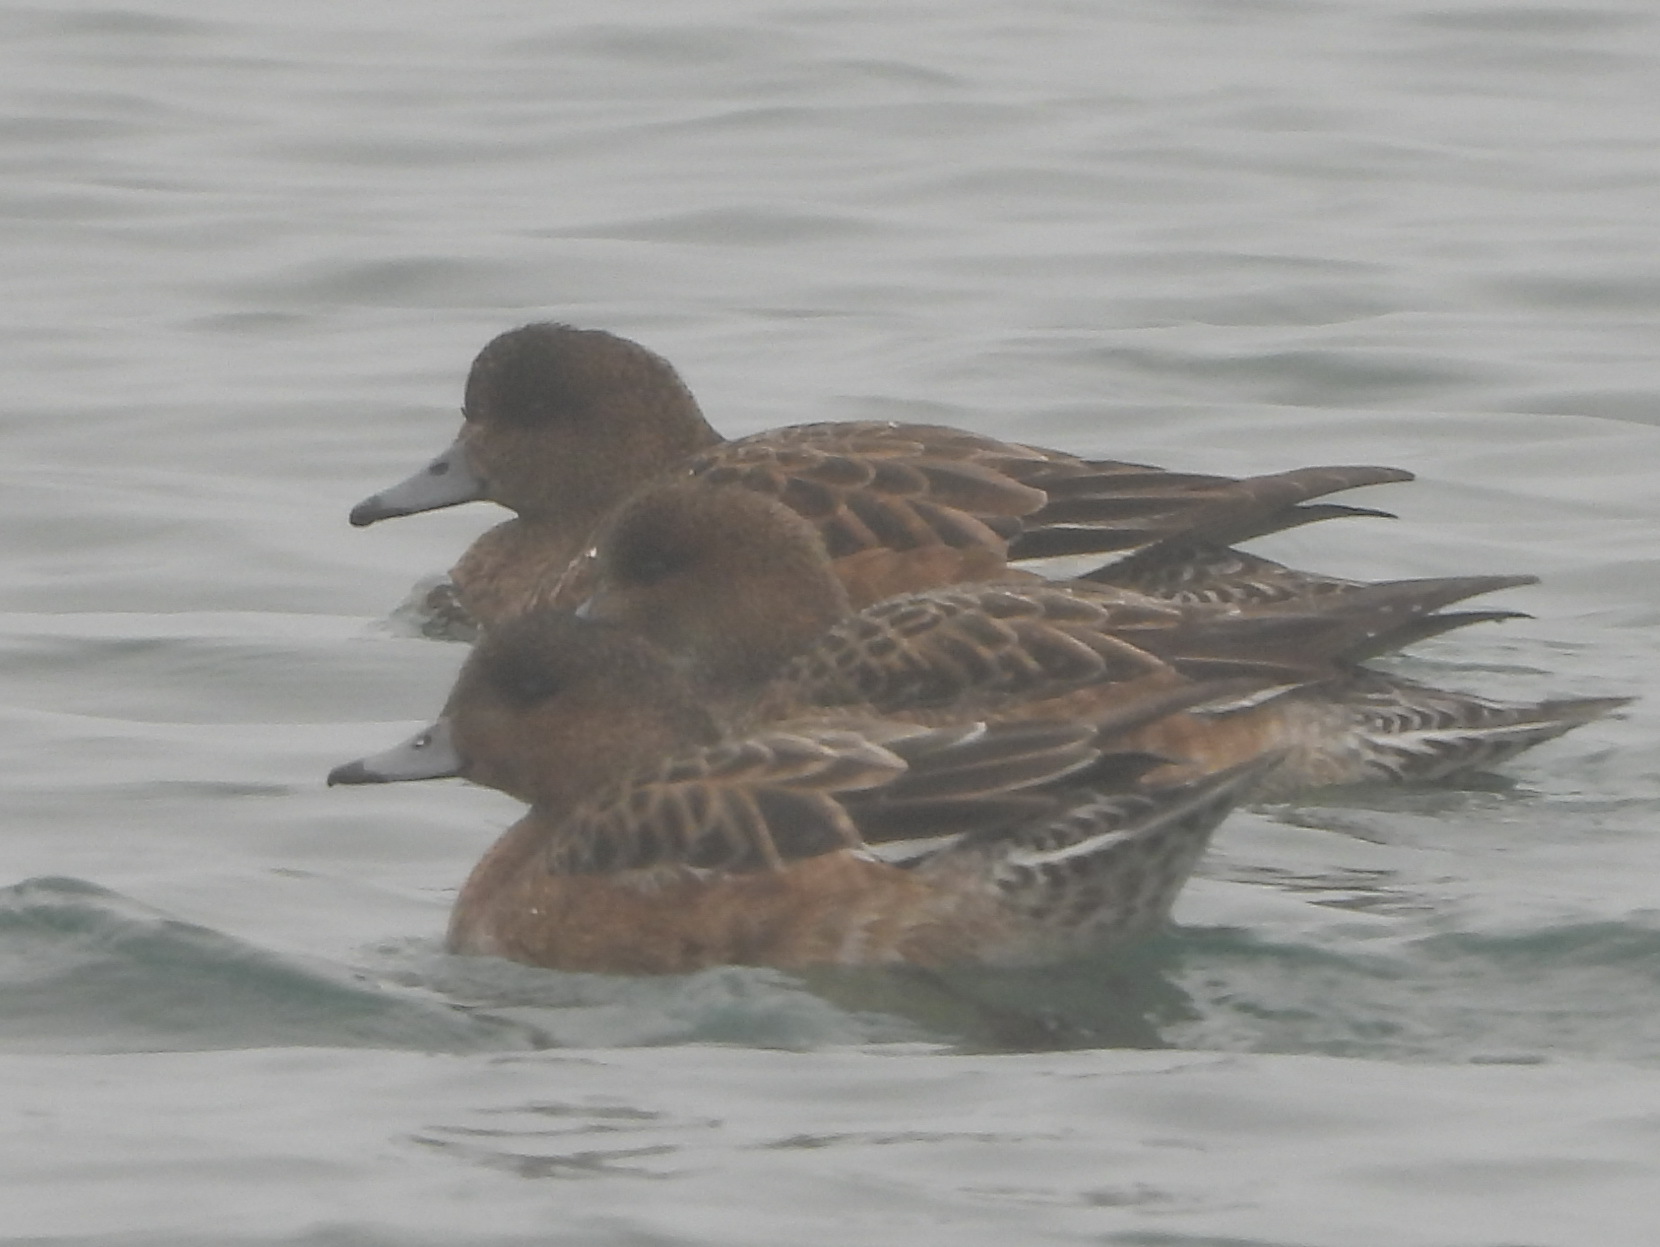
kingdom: Animalia
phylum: Chordata
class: Aves
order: Anseriformes
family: Anatidae
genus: Mareca
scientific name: Mareca penelope
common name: Eurasian wigeon
